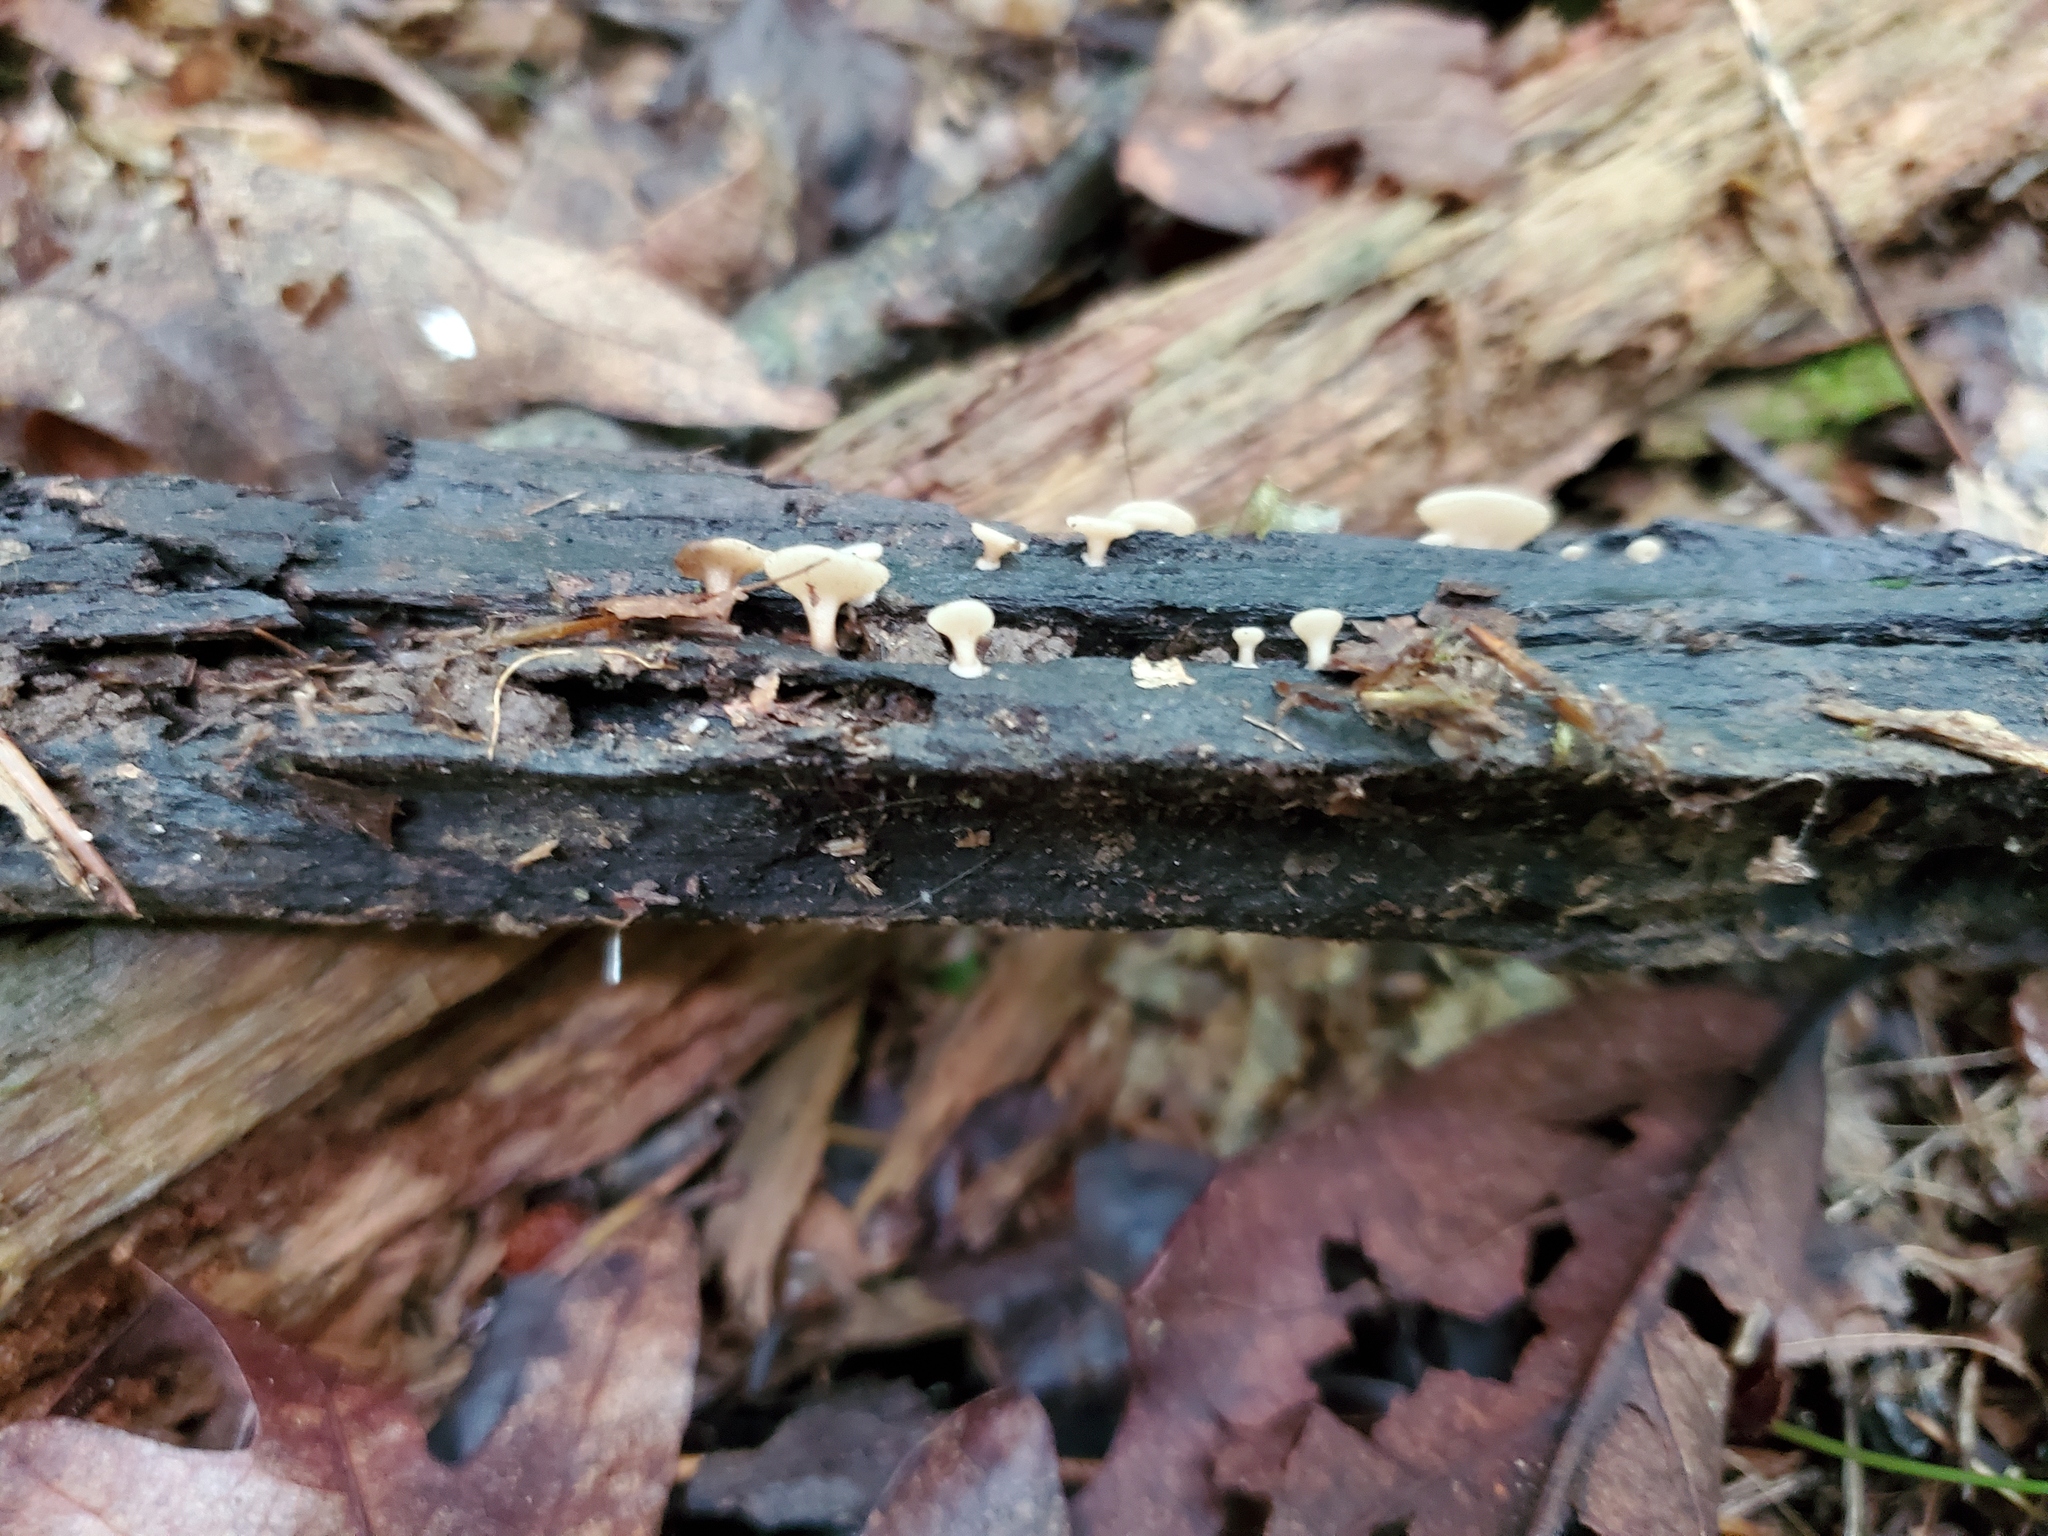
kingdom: Fungi
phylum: Ascomycota
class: Leotiomycetes
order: Helotiales
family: Helotiaceae
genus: Tatraea
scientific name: Tatraea macrospora
